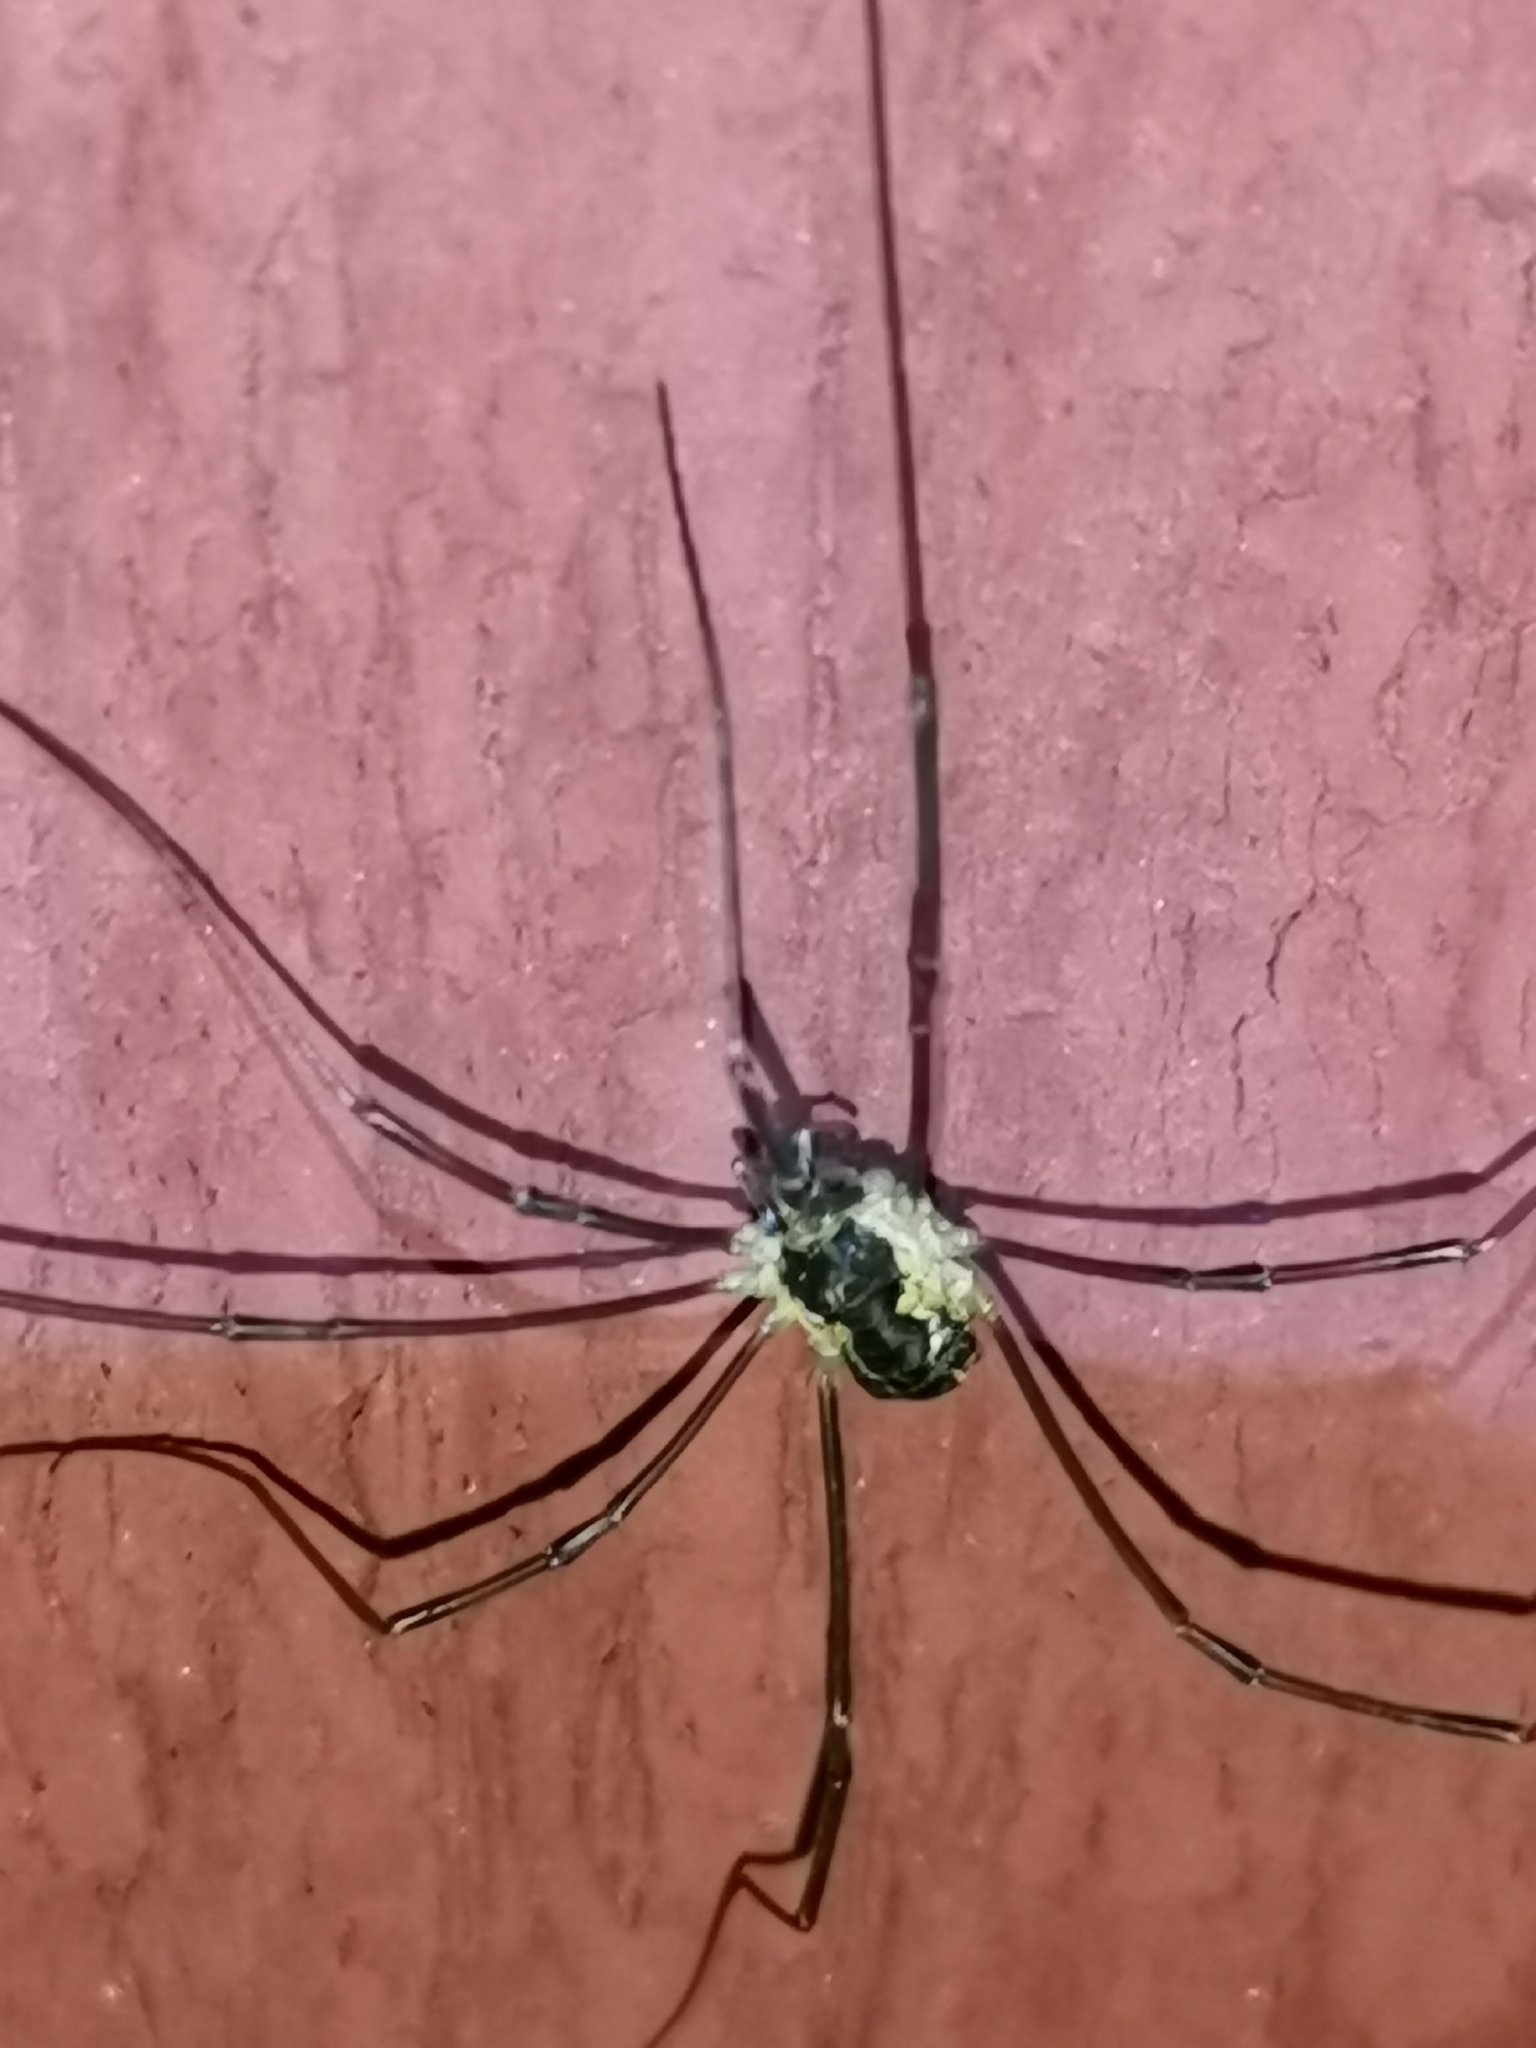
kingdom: Animalia
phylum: Arthropoda
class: Arachnida
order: Opiliones
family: Phalangiidae
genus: Mitopus
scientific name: Mitopus morio
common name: Saddleback harvestman
